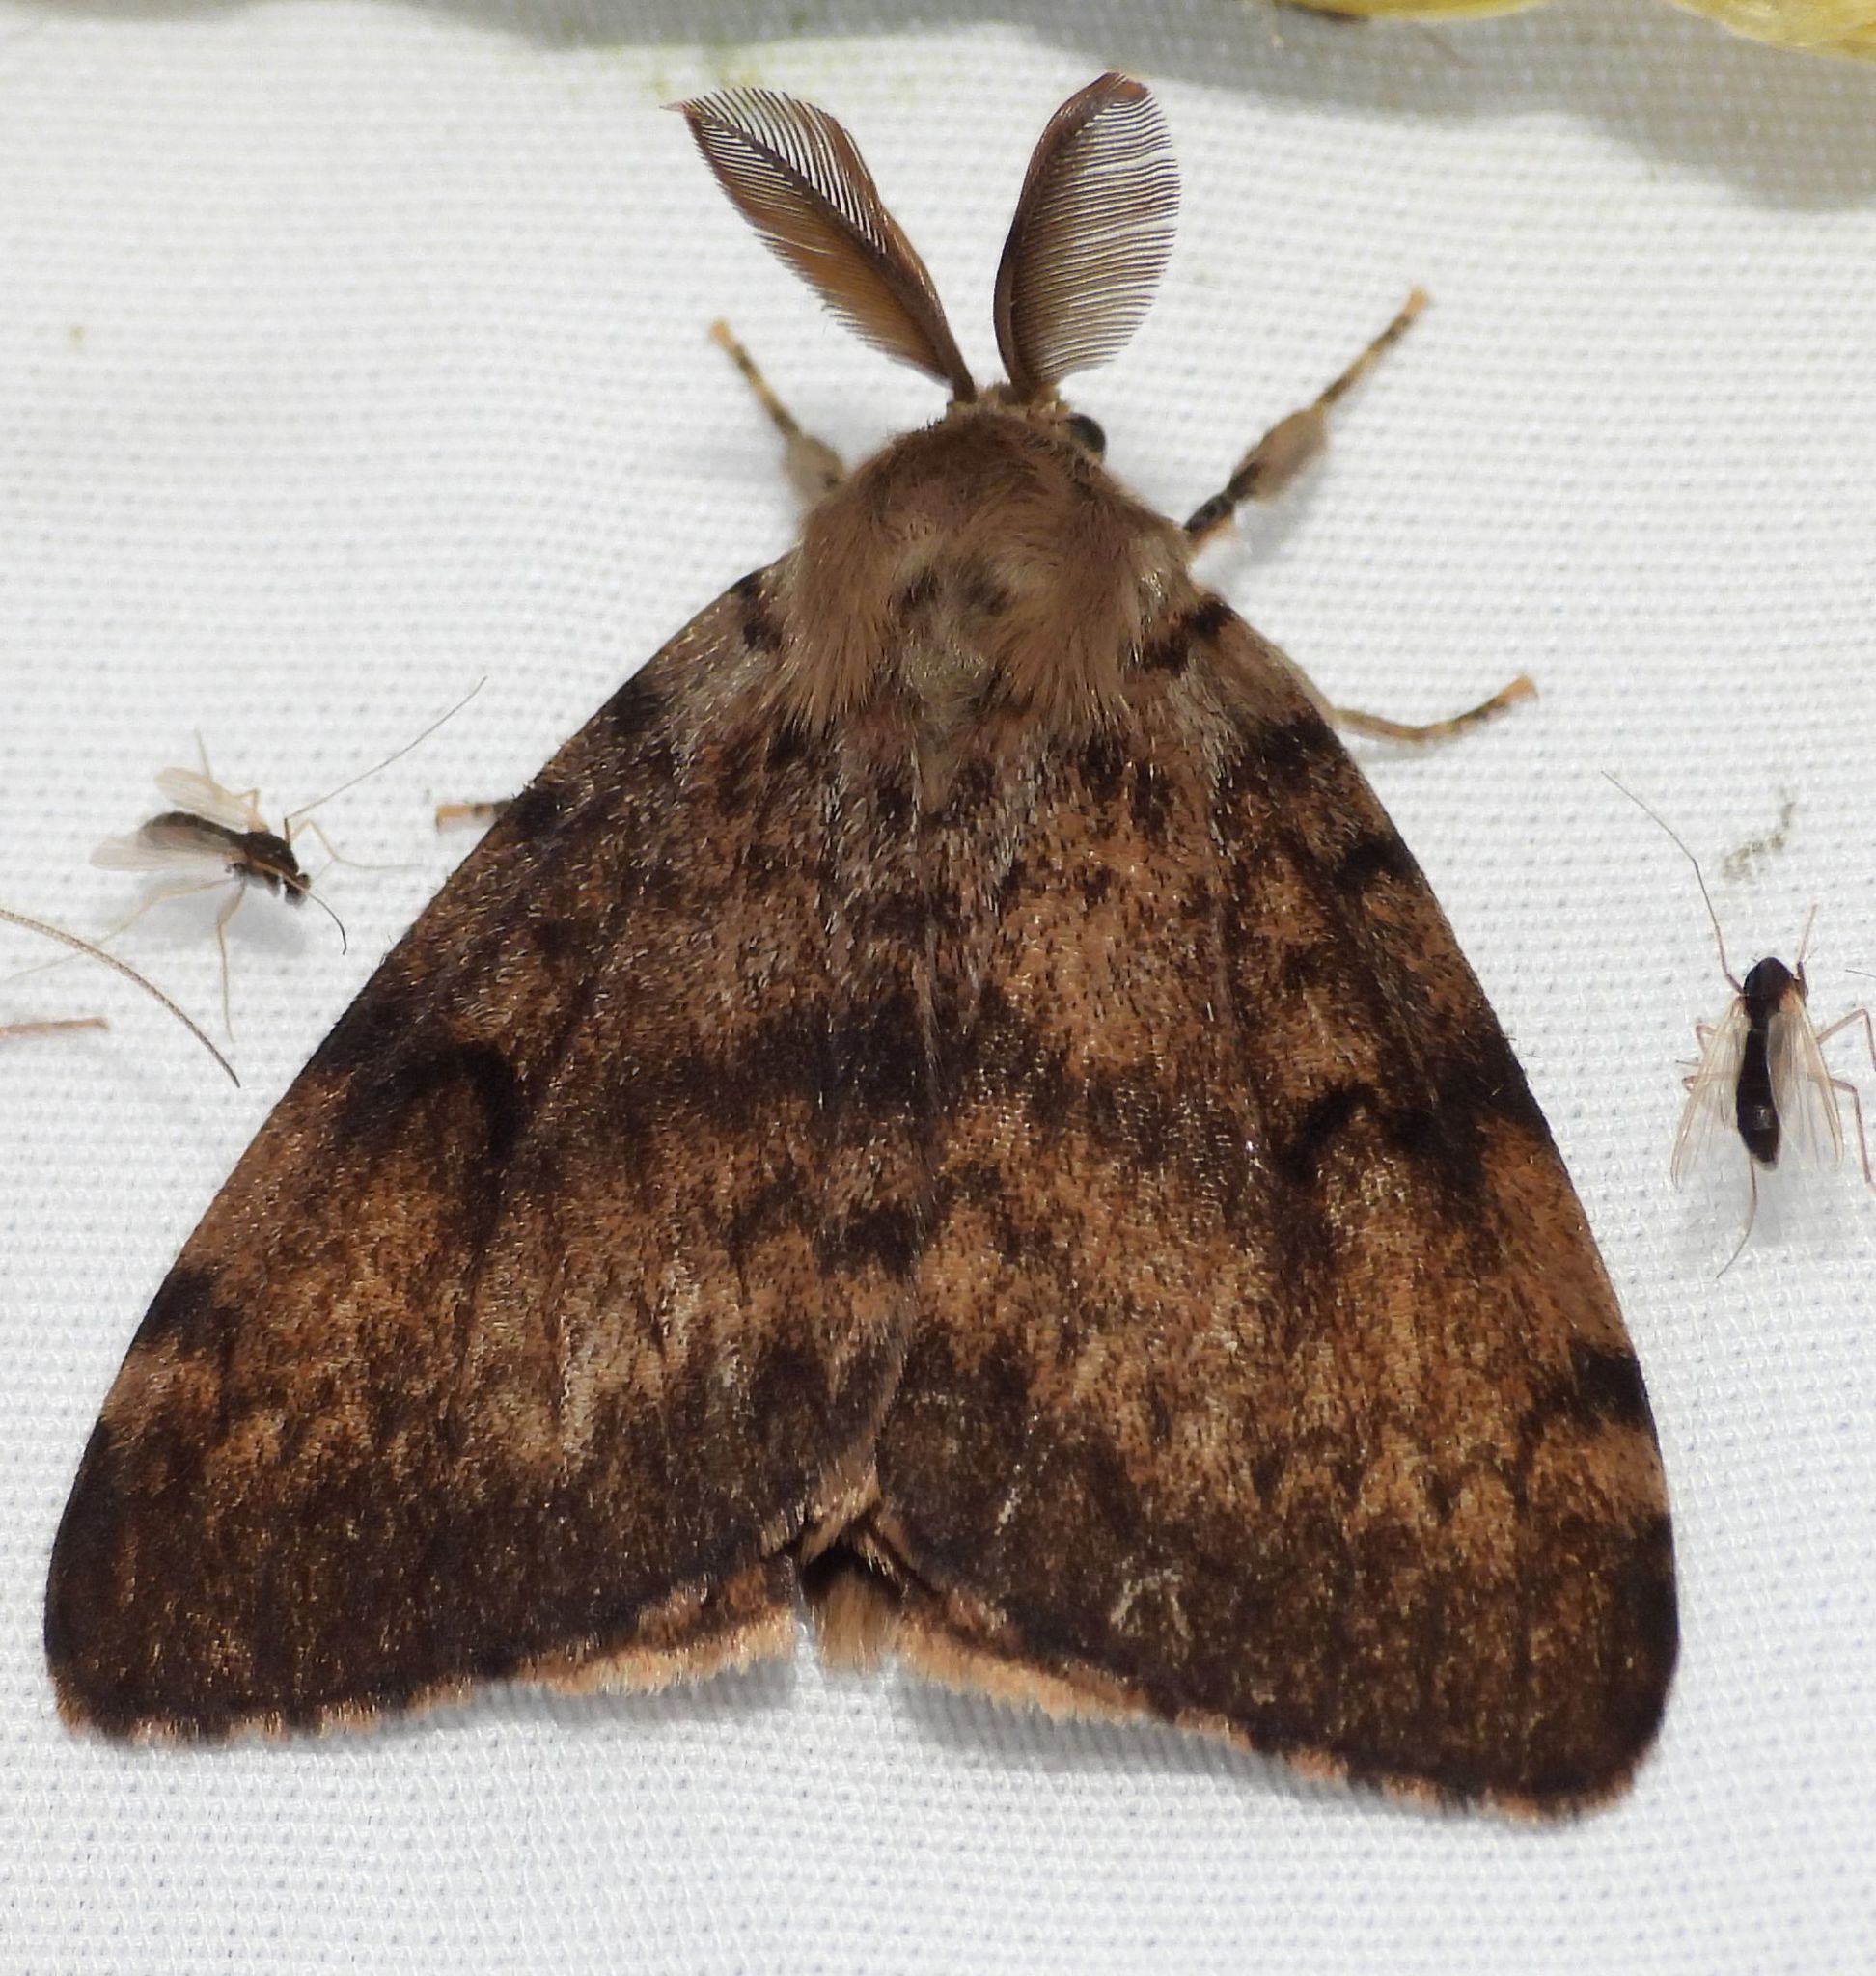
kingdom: Animalia
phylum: Arthropoda
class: Insecta
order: Lepidoptera
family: Erebidae
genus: Lymantria
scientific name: Lymantria dispar
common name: Gypsy moth
